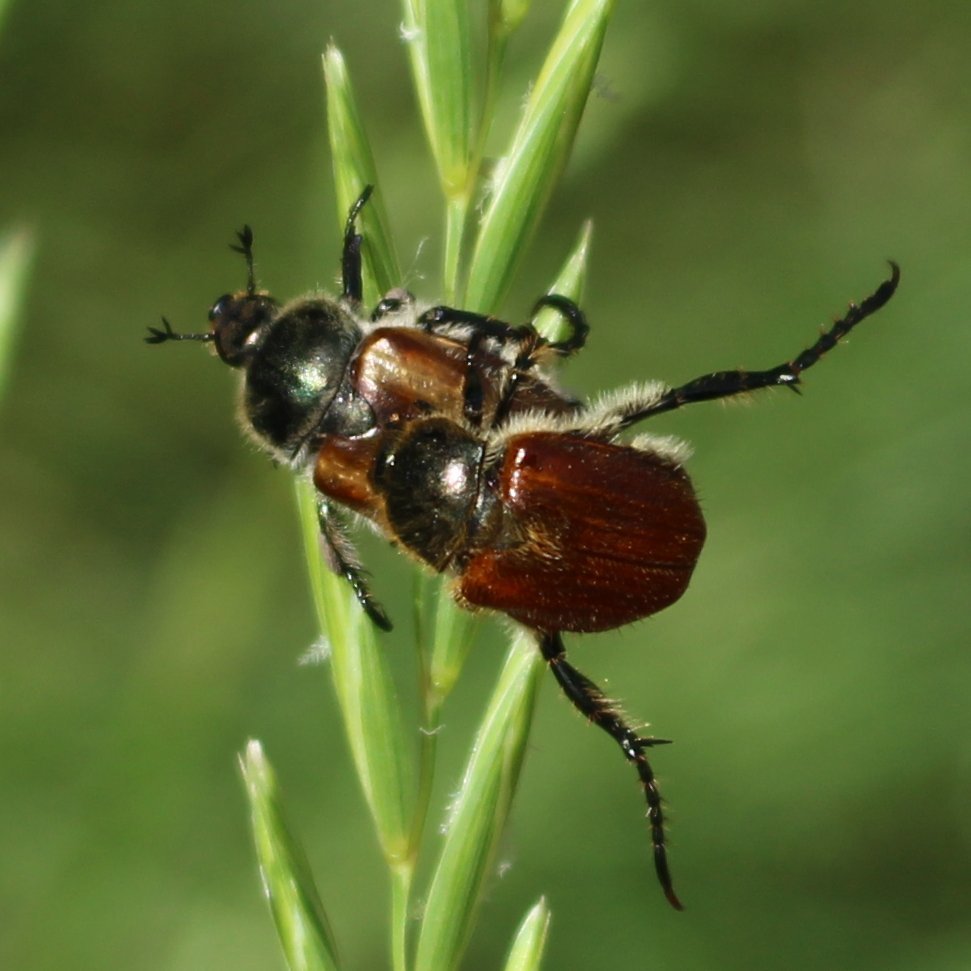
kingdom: Animalia
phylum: Arthropoda
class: Insecta
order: Coleoptera
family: Scarabaeidae
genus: Chaetopteroplia
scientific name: Chaetopteroplia segetum
